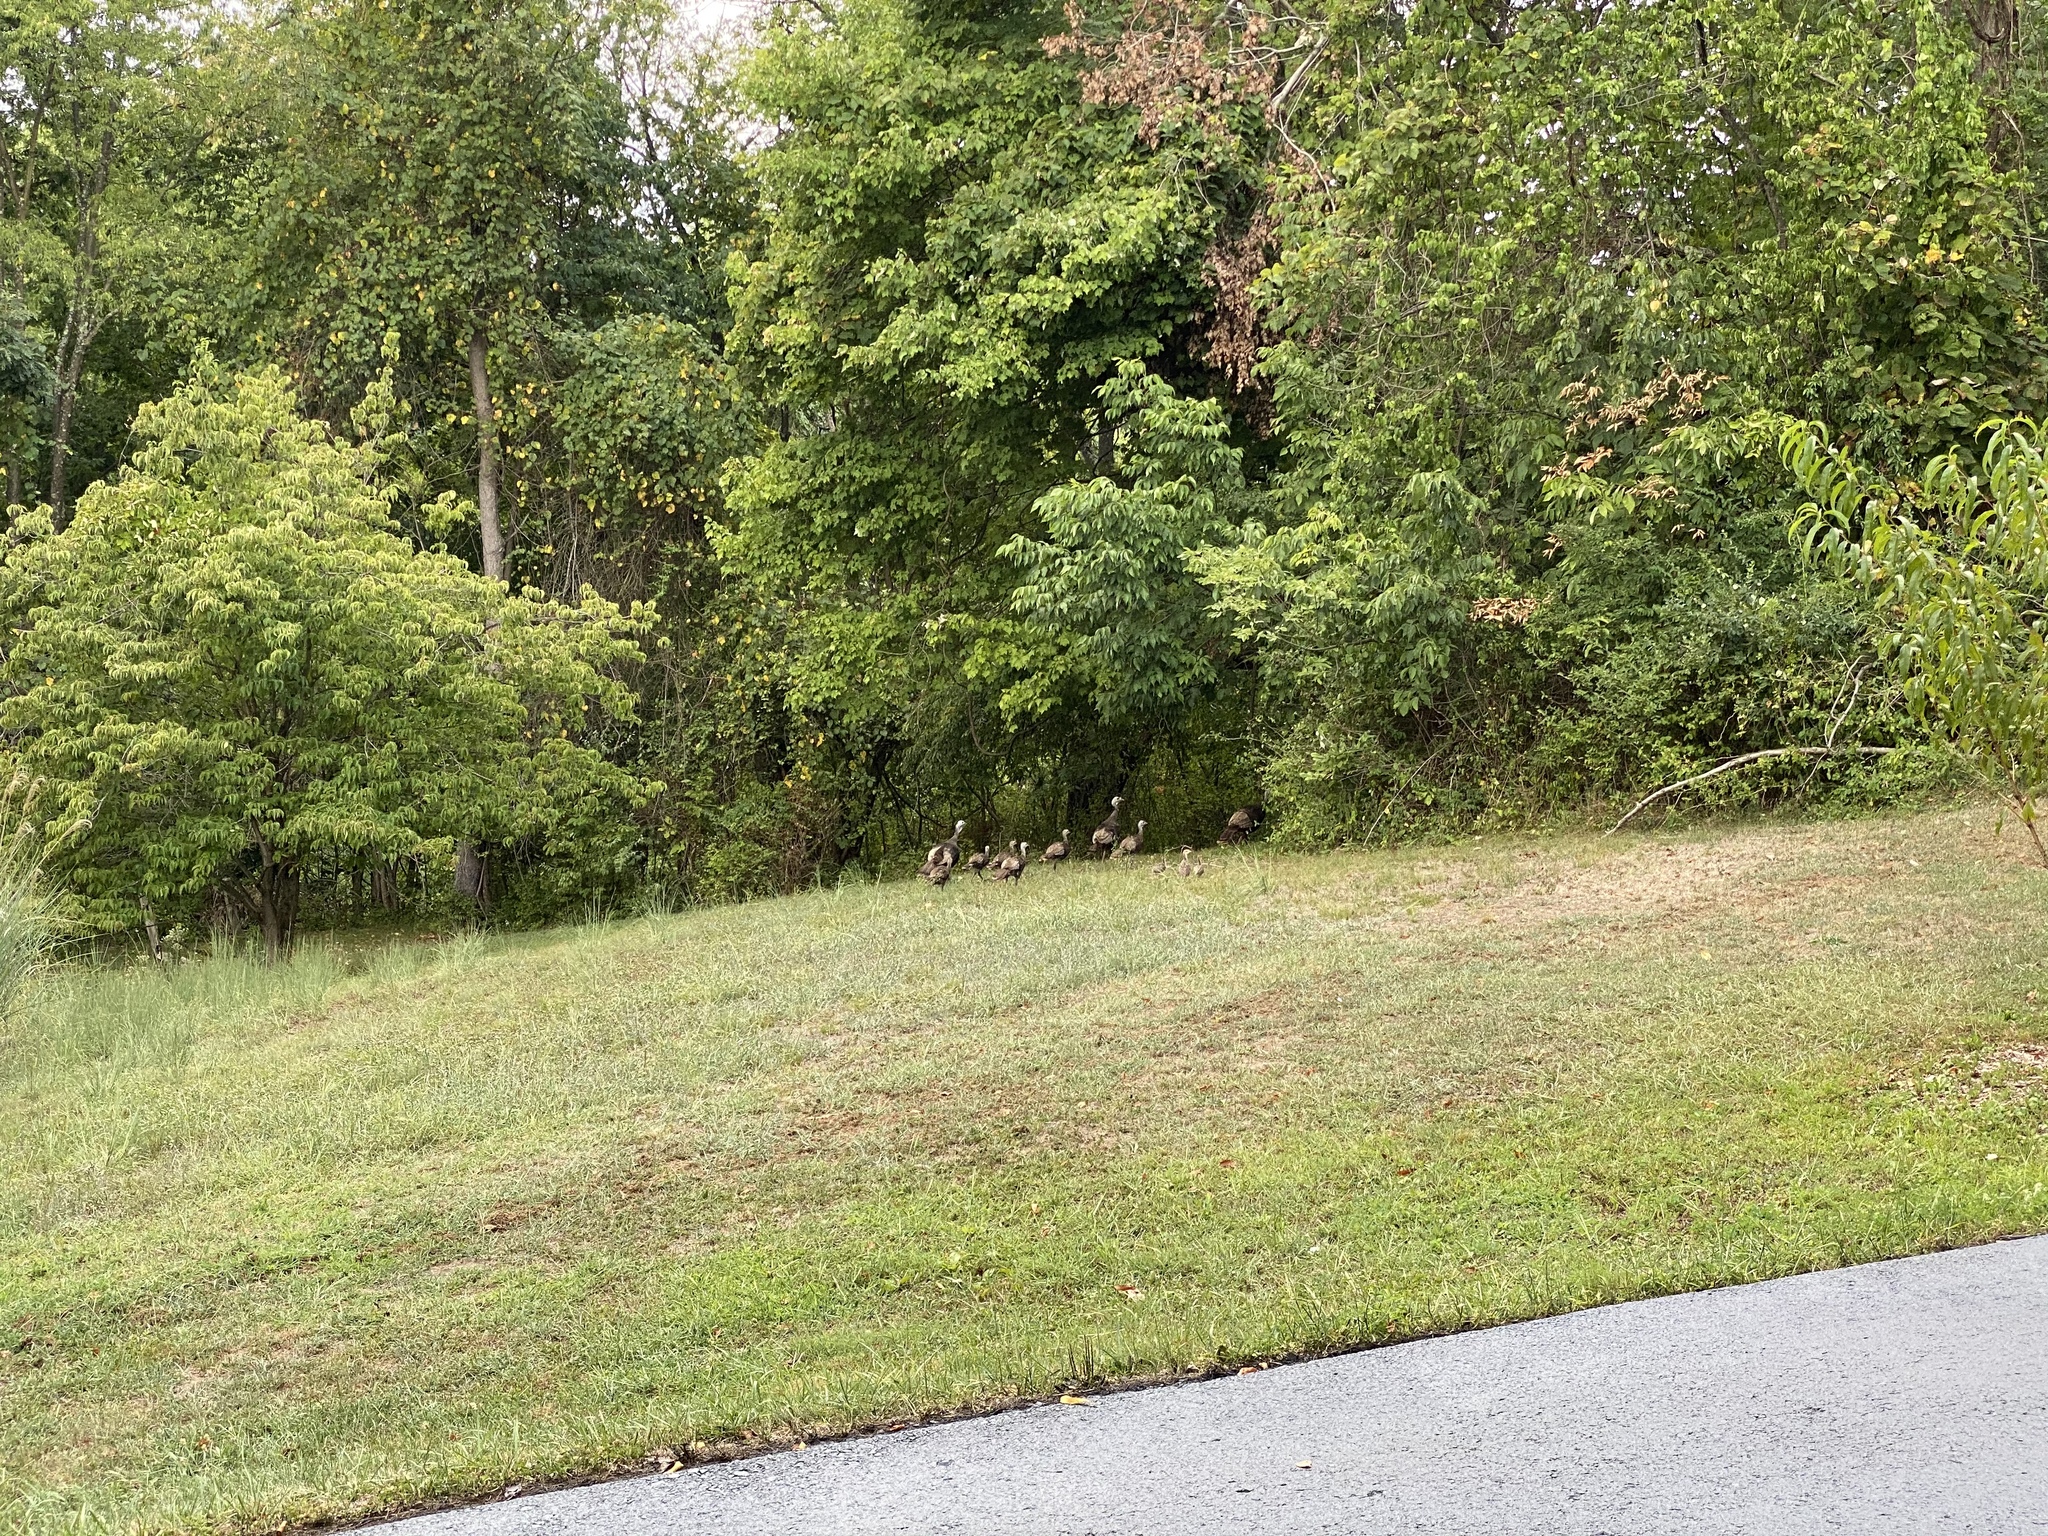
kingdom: Animalia
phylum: Chordata
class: Aves
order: Galliformes
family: Phasianidae
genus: Meleagris
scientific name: Meleagris gallopavo
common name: Wild turkey
